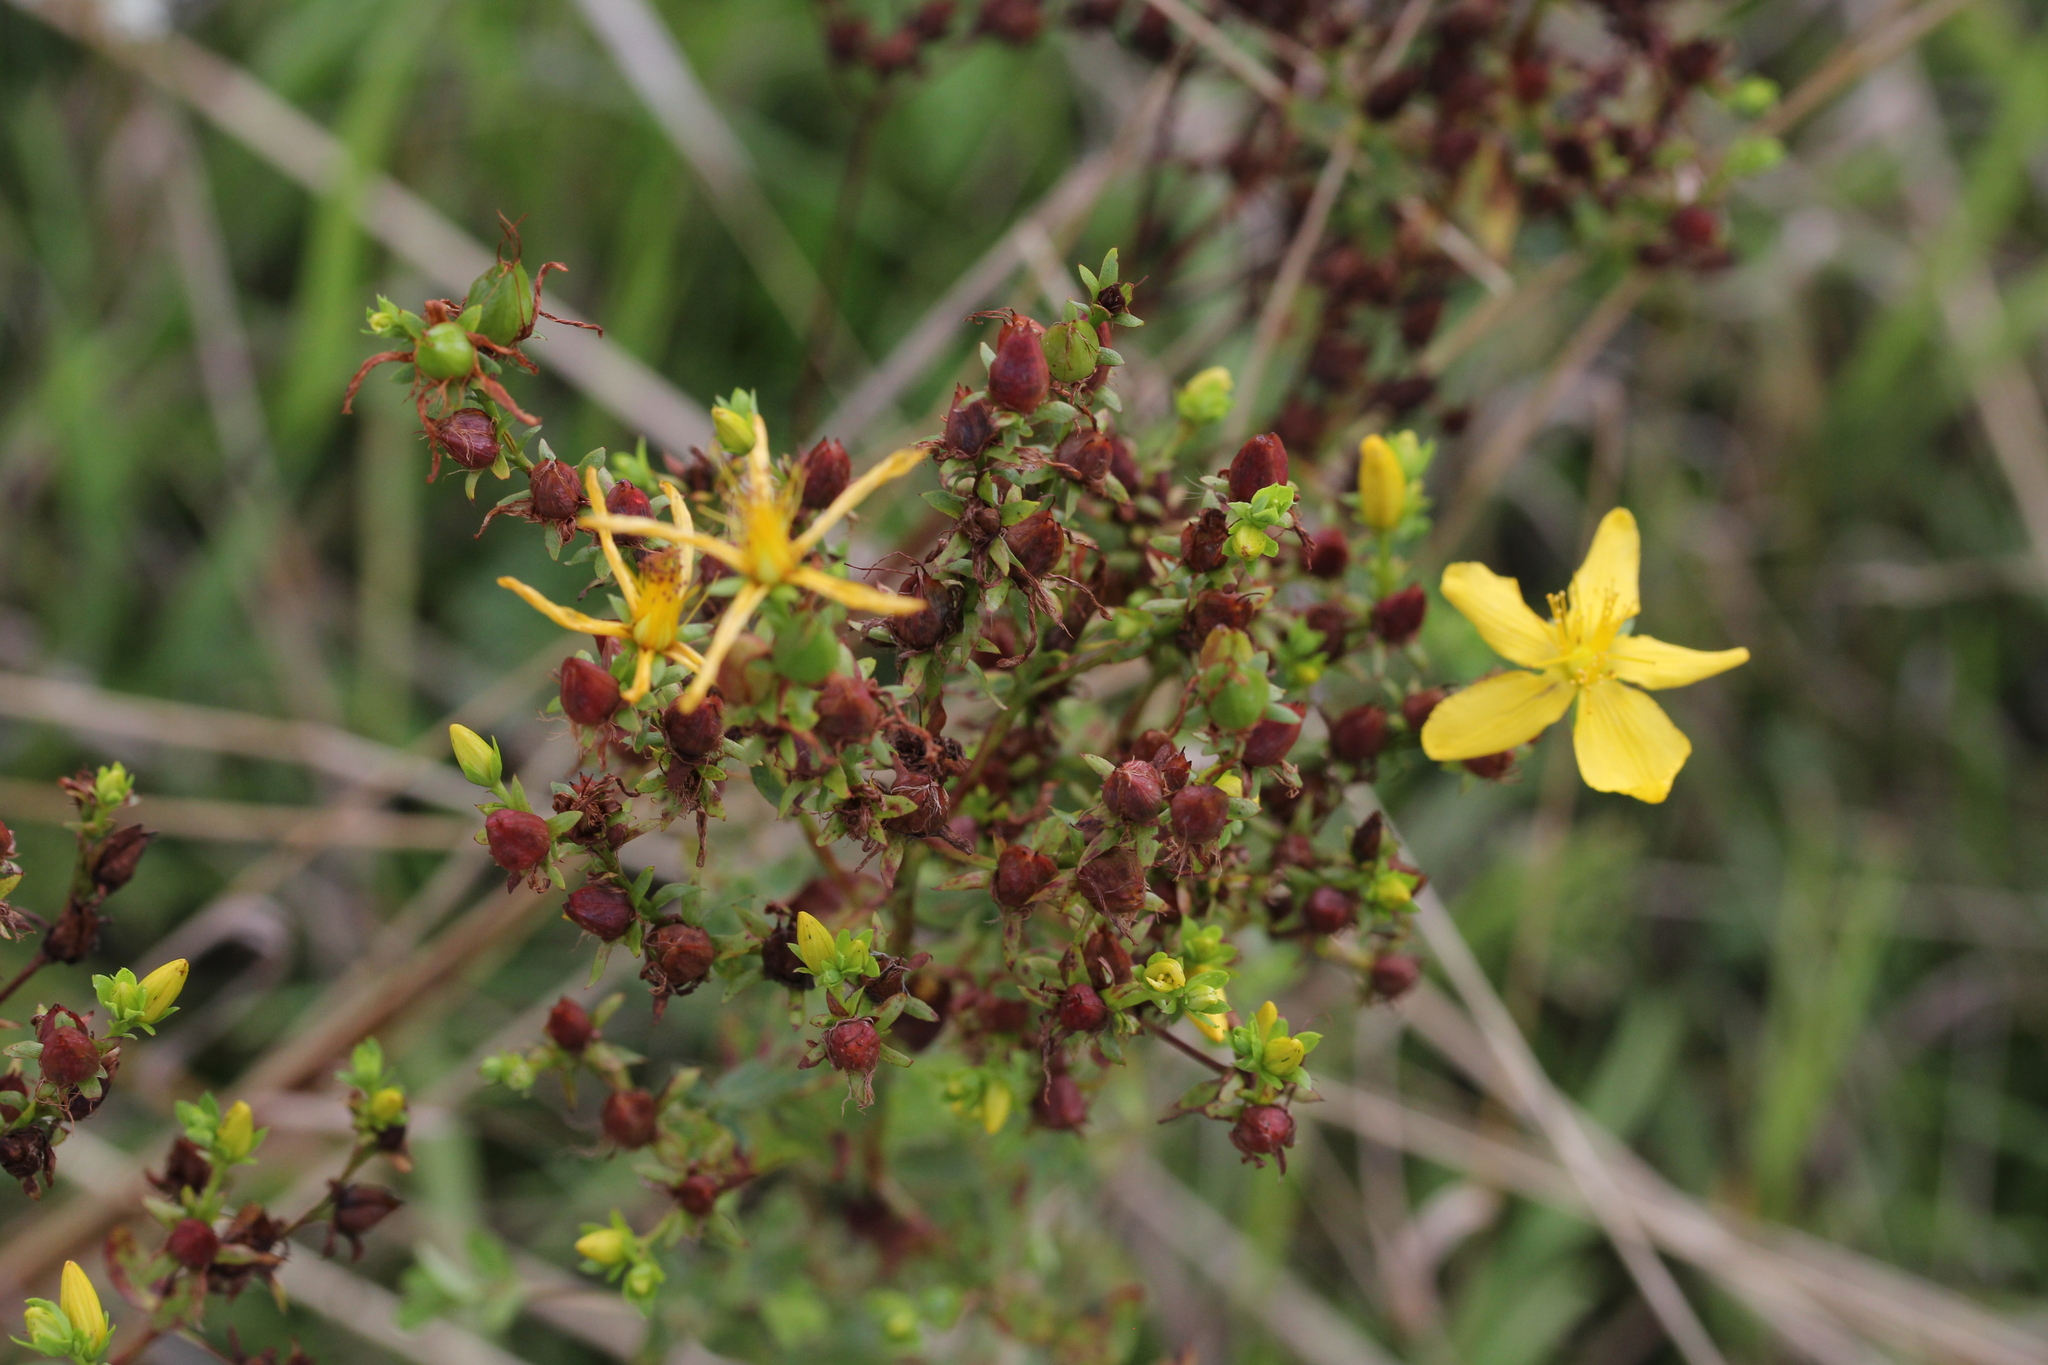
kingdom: Plantae
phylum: Tracheophyta
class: Magnoliopsida
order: Malpighiales
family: Hypericaceae
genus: Hypericum
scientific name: Hypericum perforatum
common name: Common st. johnswort
